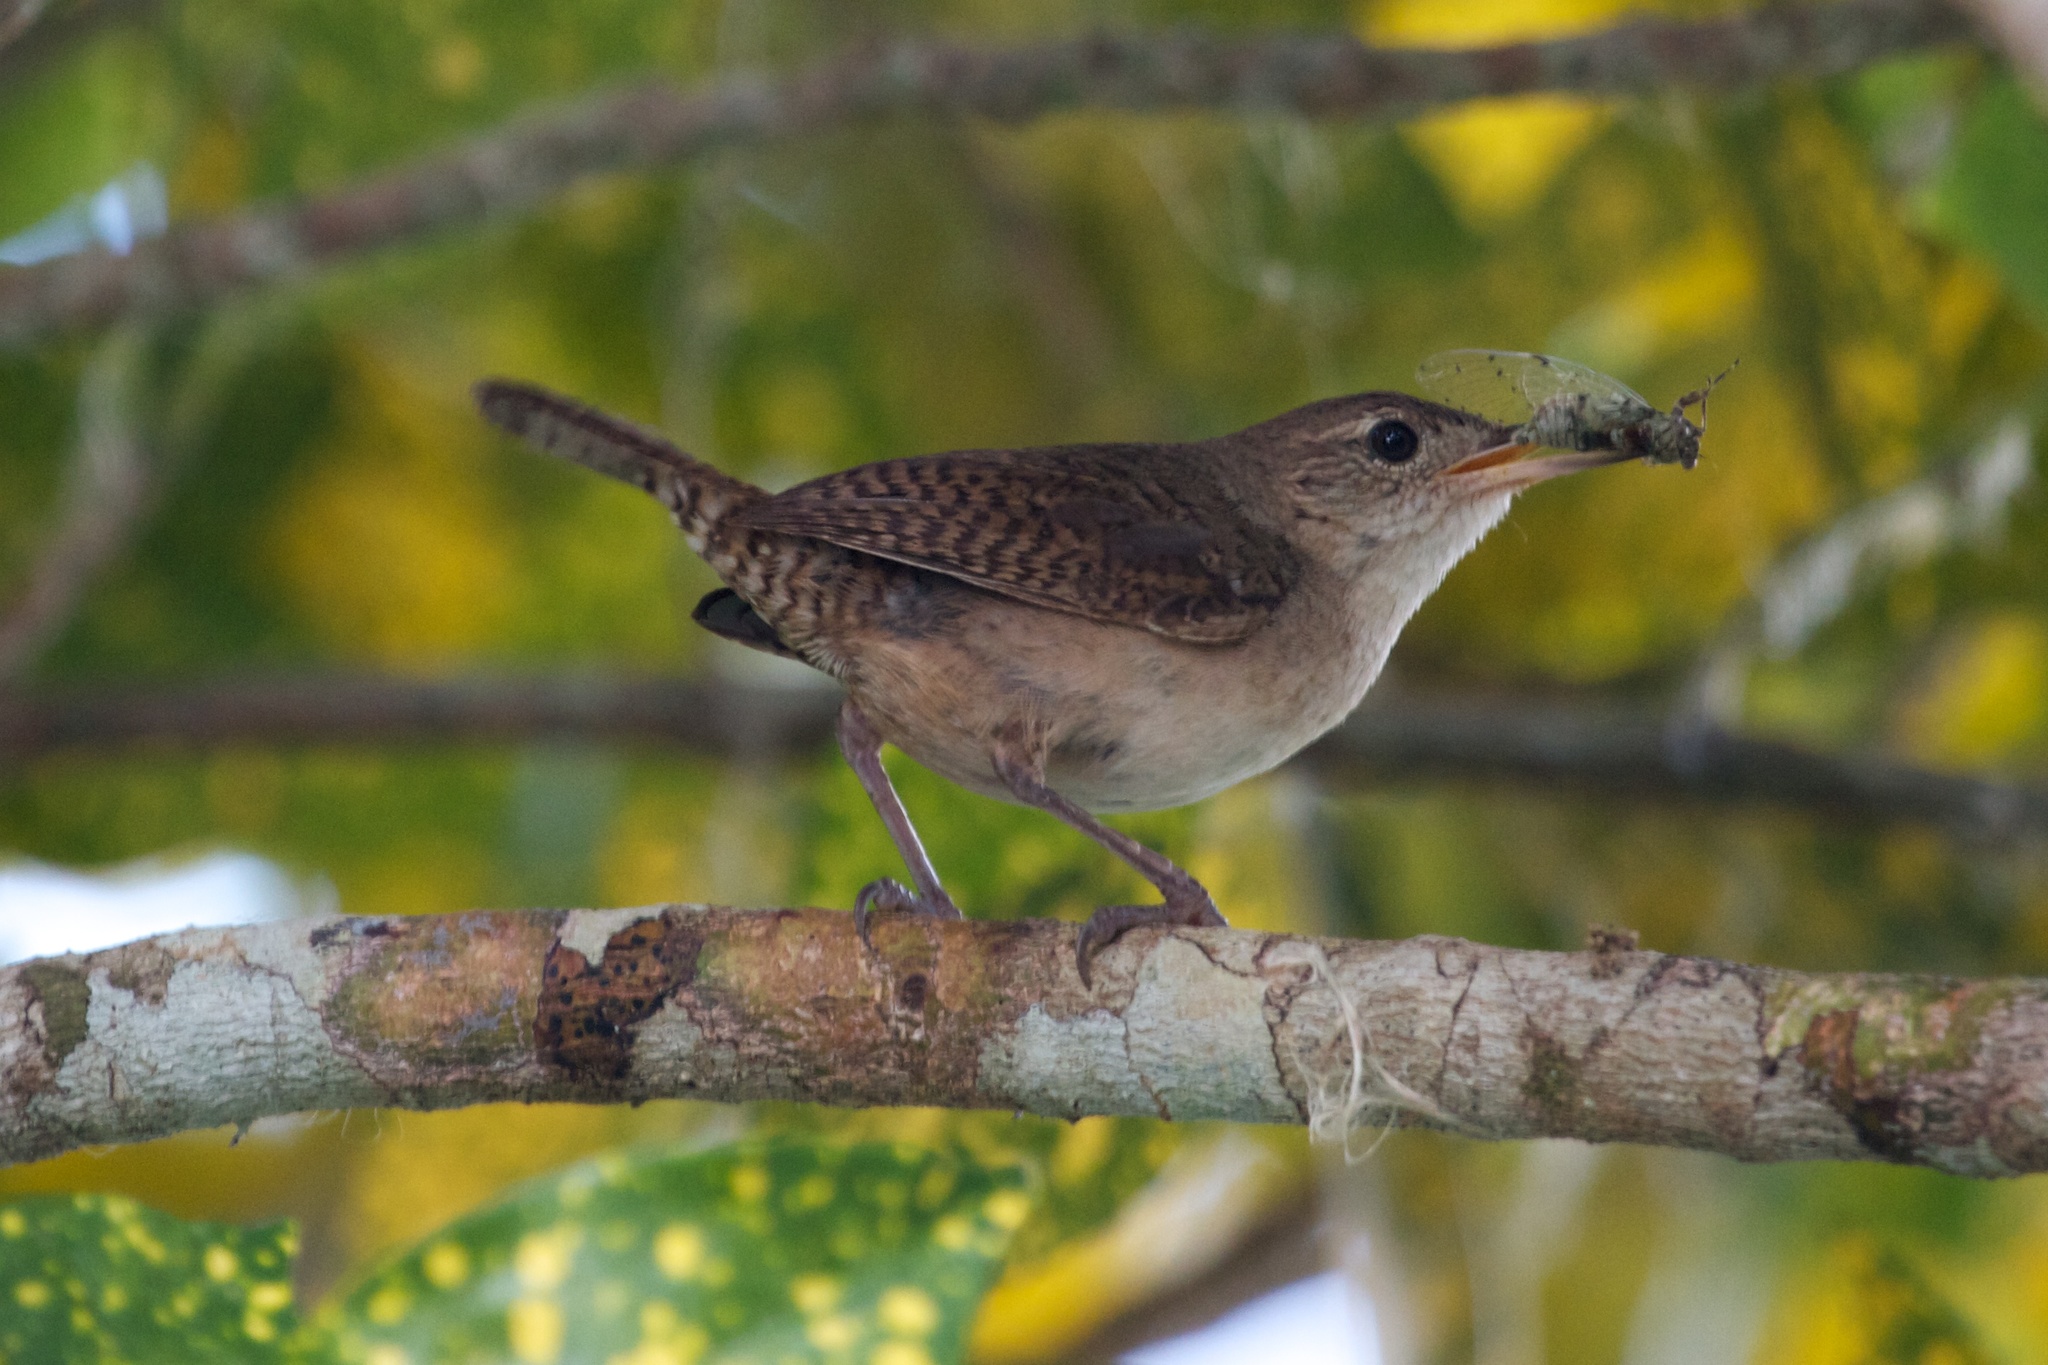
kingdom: Animalia
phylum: Chordata
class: Aves
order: Passeriformes
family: Troglodytidae
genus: Troglodytes
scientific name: Troglodytes aedon
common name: House wren
